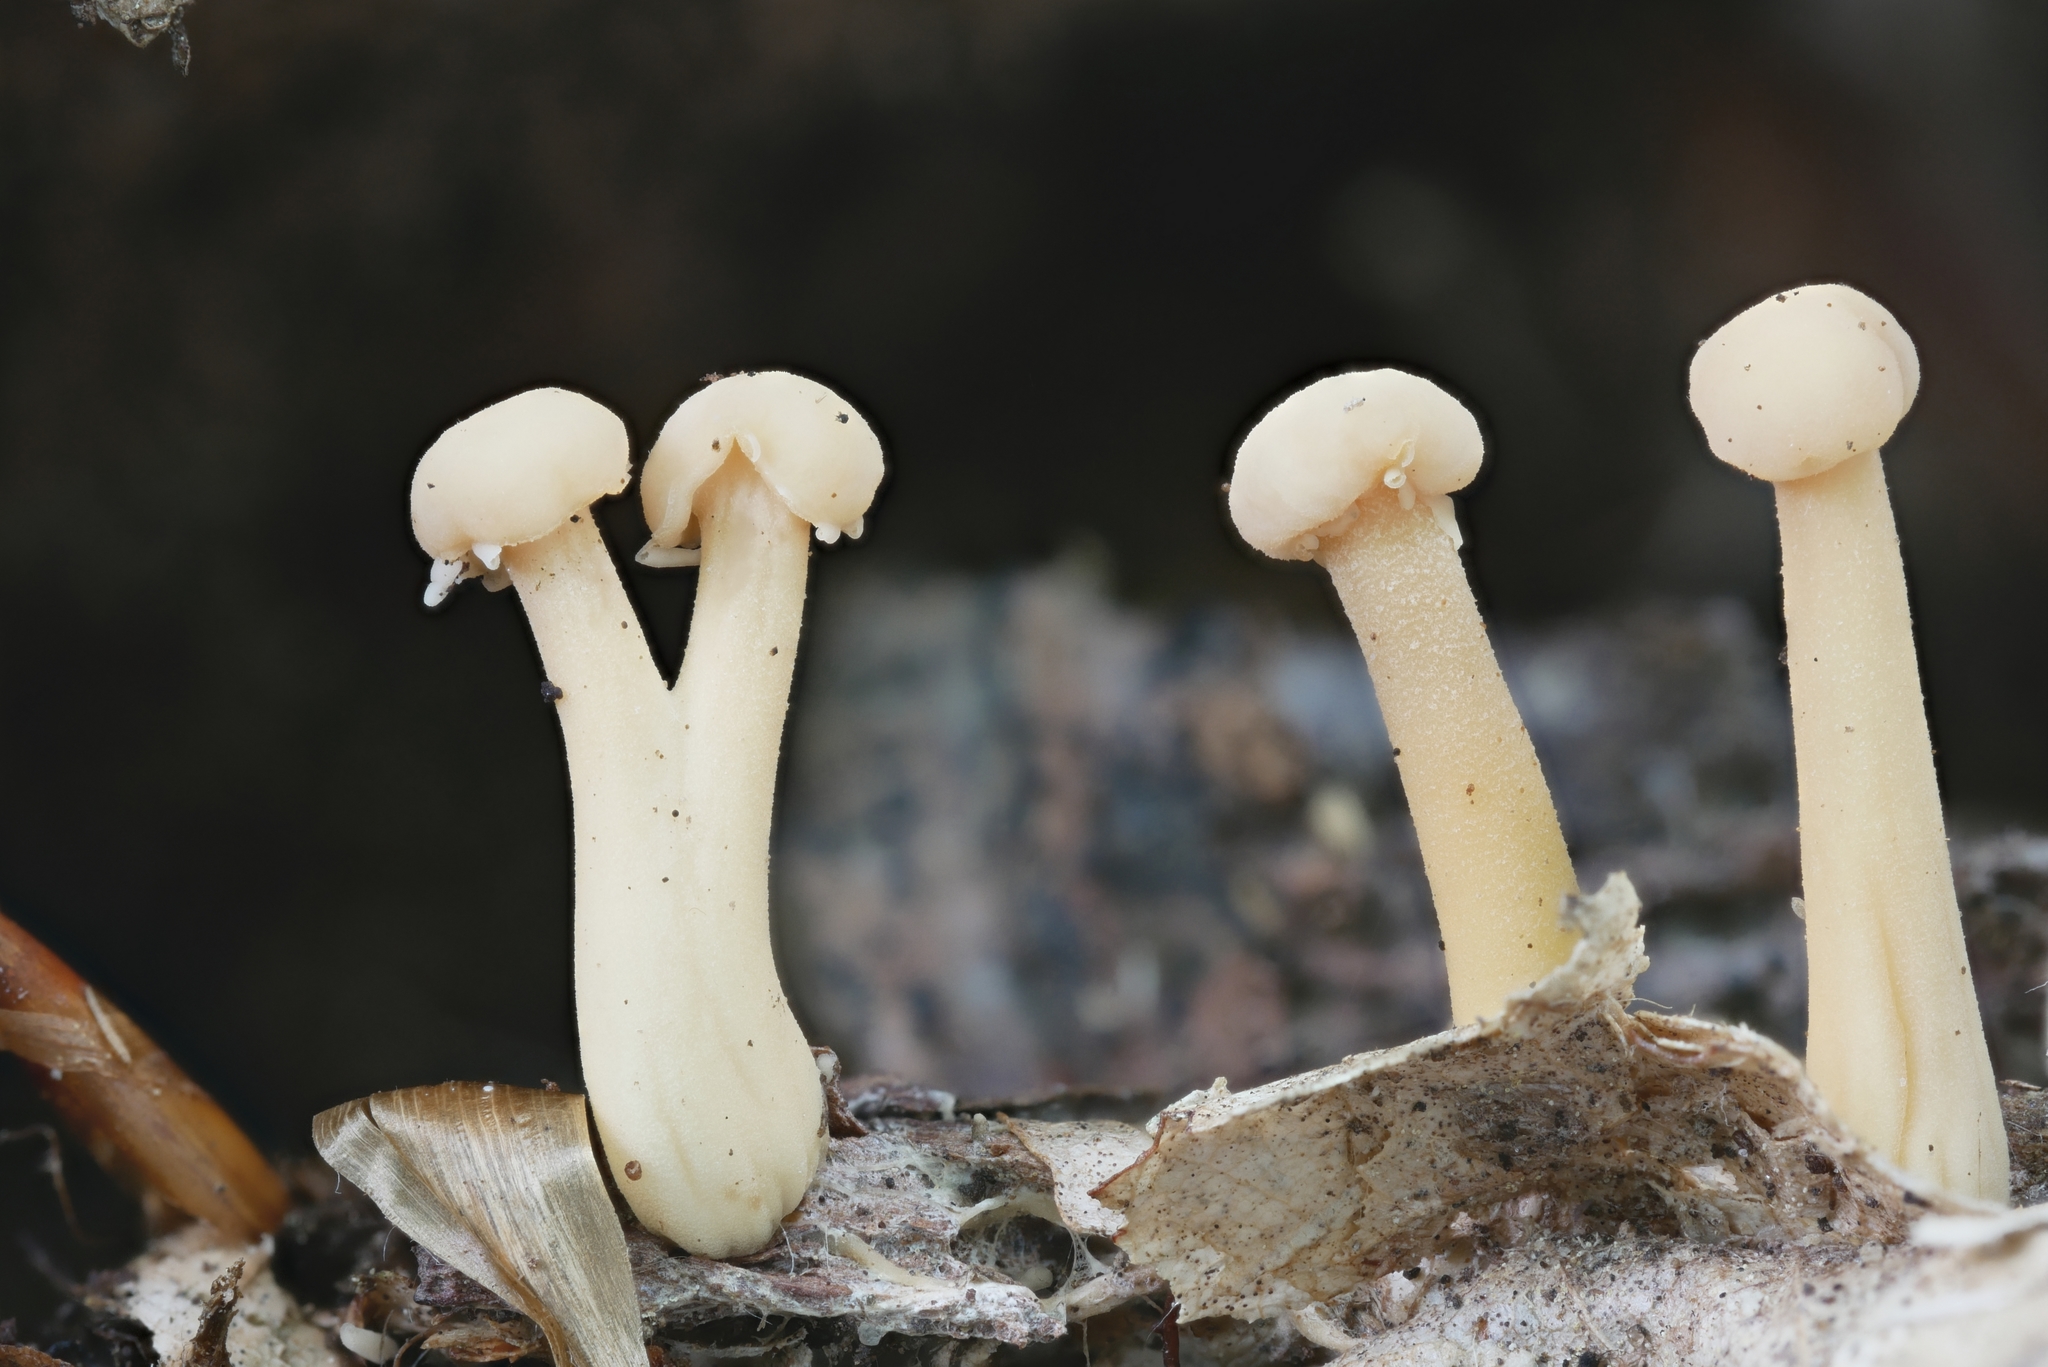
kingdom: Fungi
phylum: Ascomycota
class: Leotiomycetes
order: Rhytismatales
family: Cudoniaceae
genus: Cudonia
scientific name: Cudonia lutea
